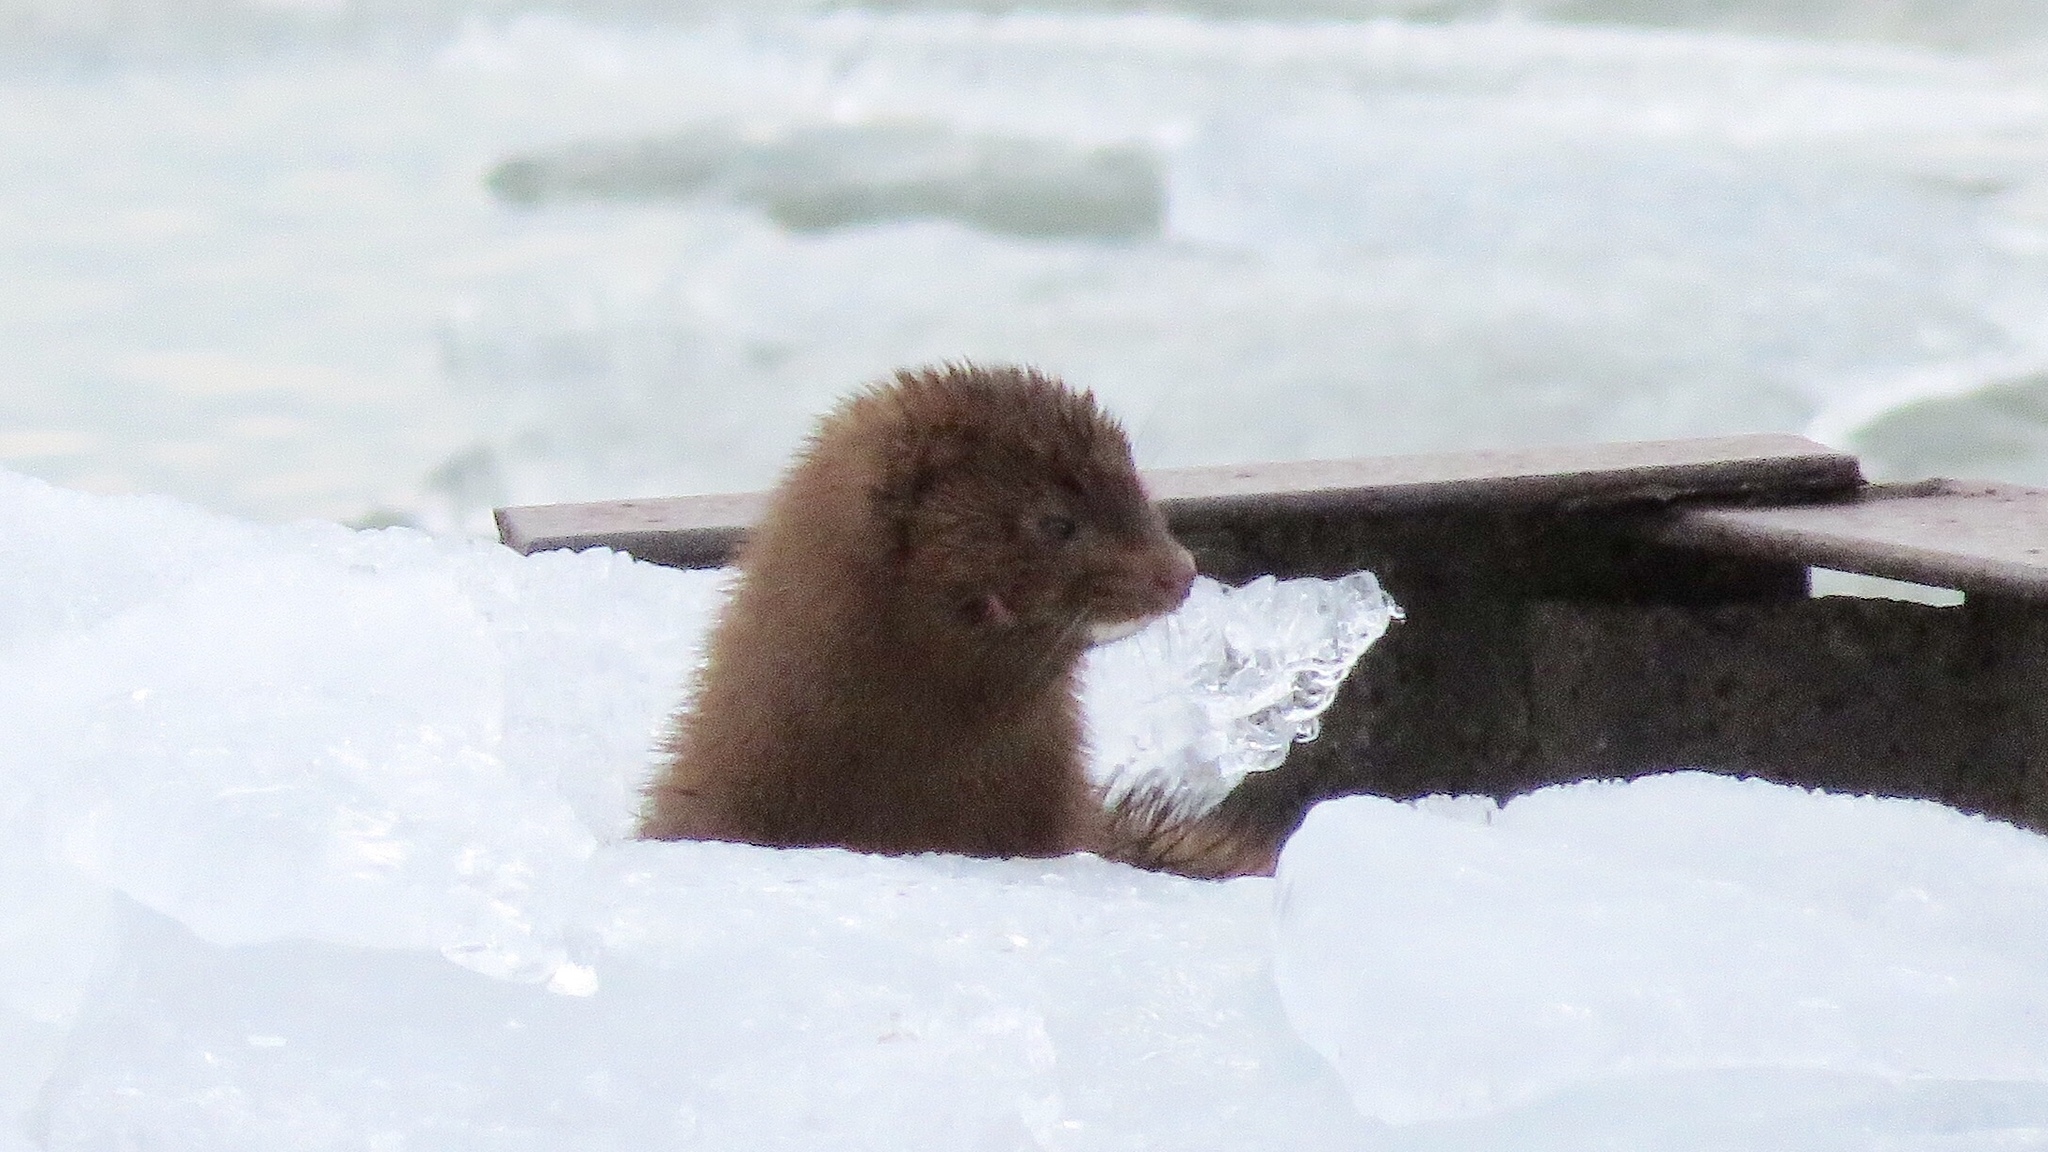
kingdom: Animalia
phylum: Chordata
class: Mammalia
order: Carnivora
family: Mustelidae
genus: Mustela
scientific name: Mustela
